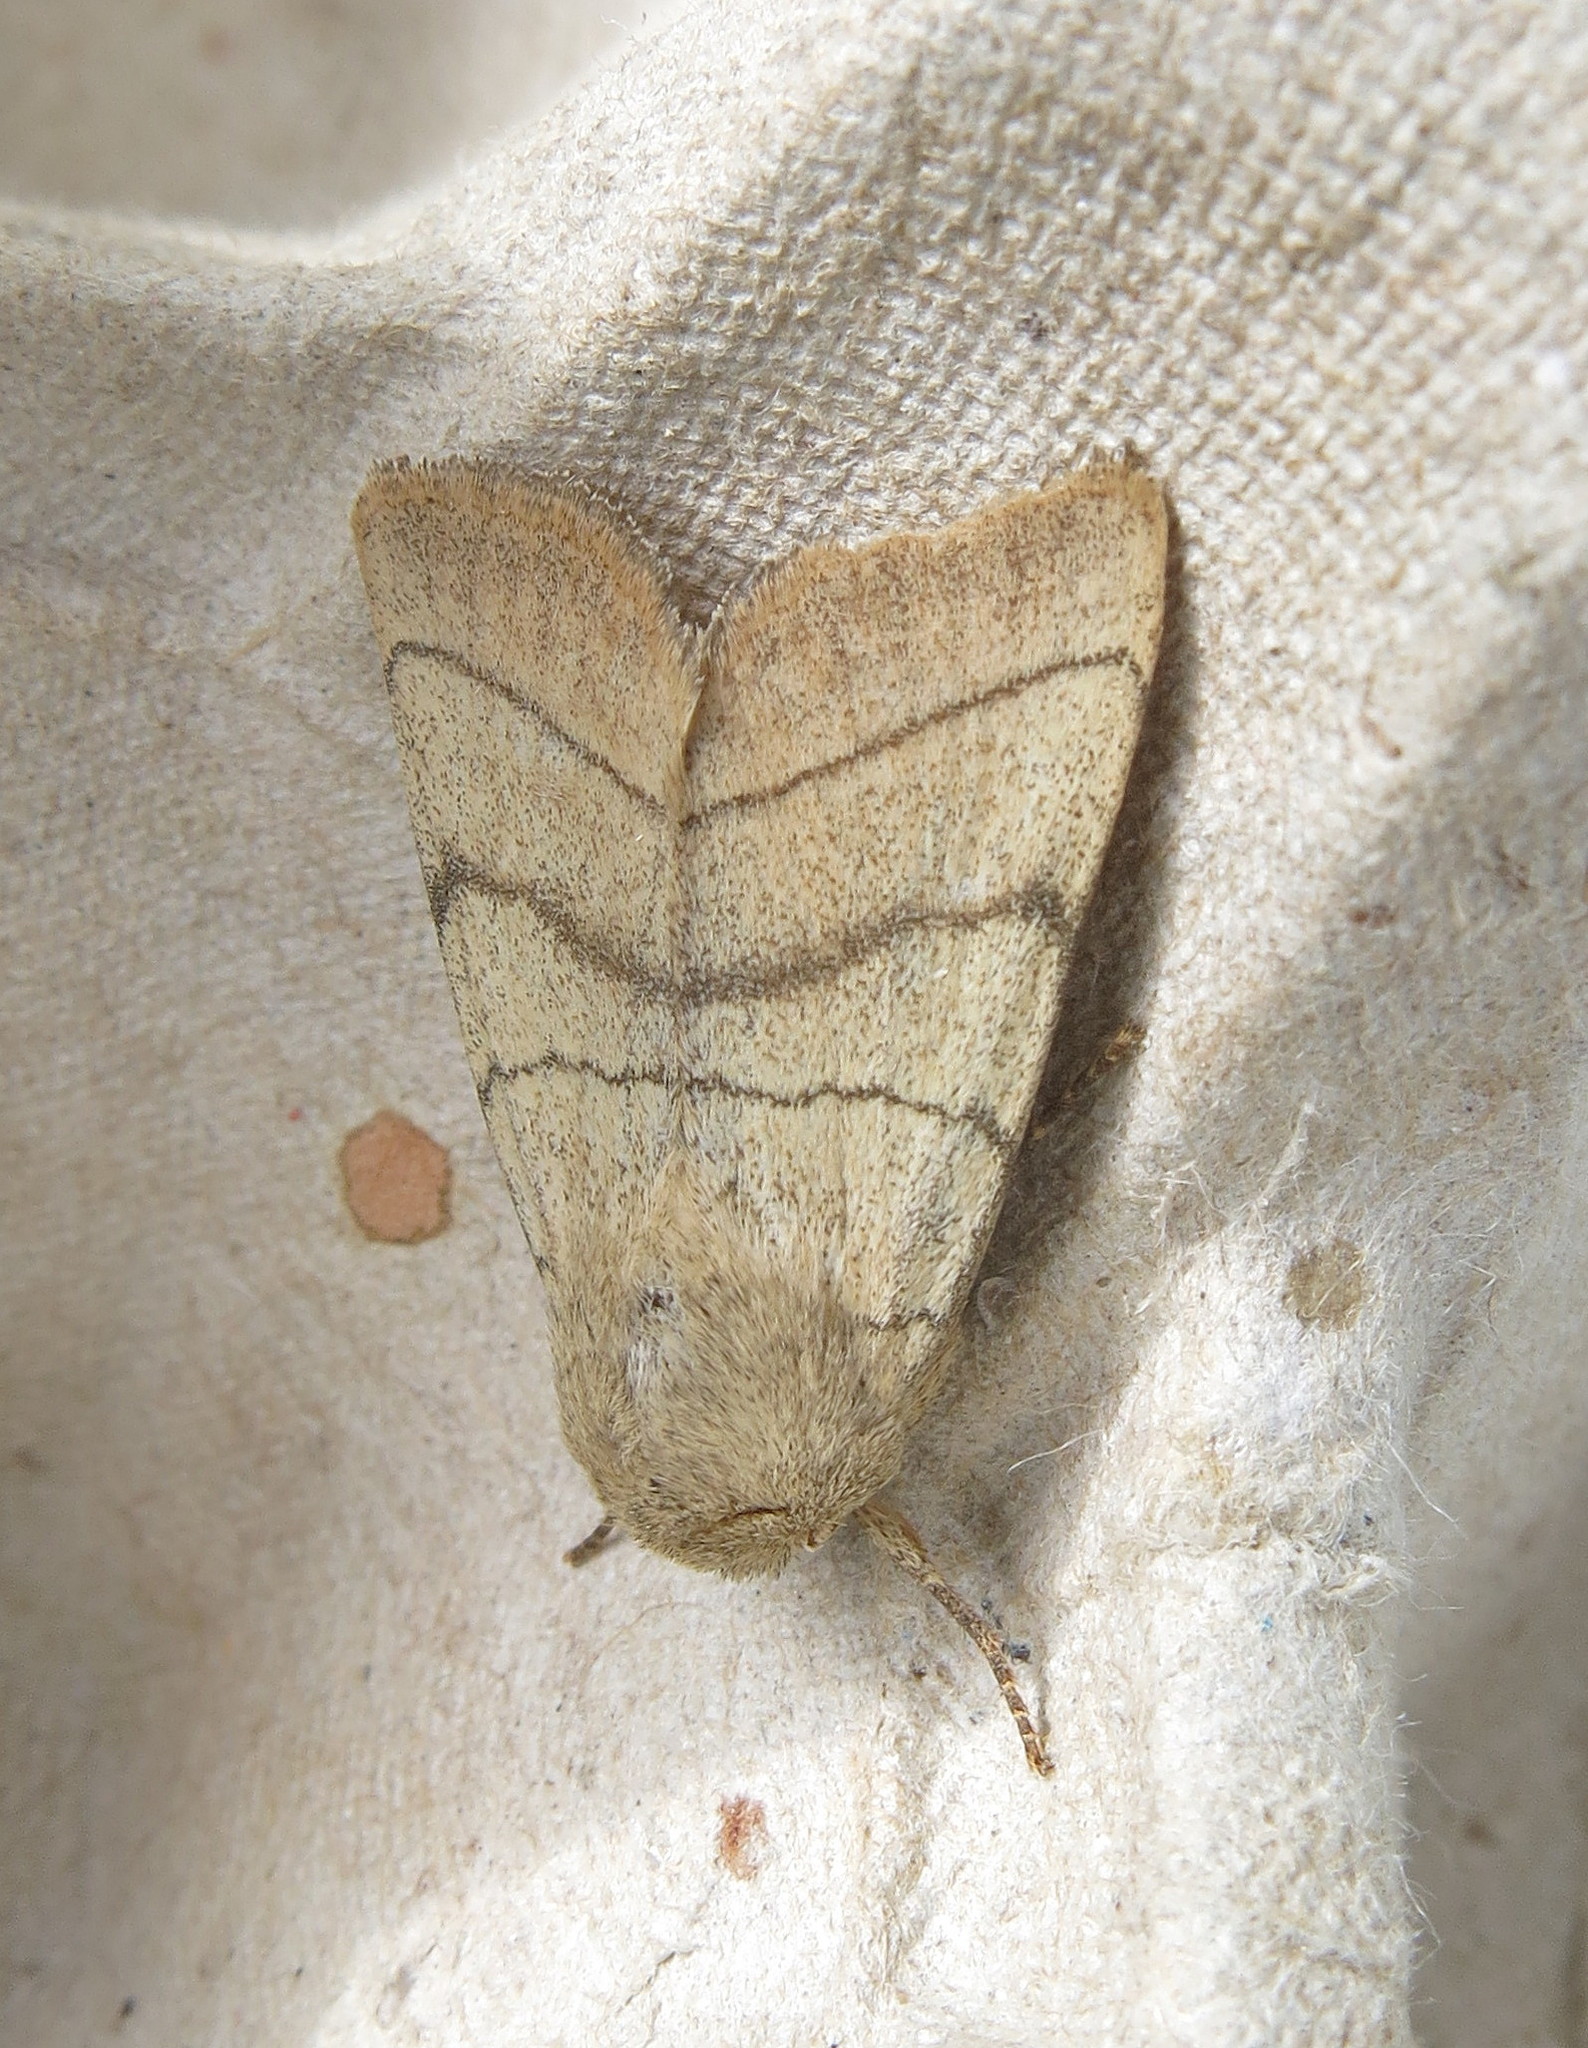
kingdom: Animalia
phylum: Arthropoda
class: Insecta
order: Lepidoptera
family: Noctuidae
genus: Charanyca
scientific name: Charanyca trigrammica
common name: Treble lines
